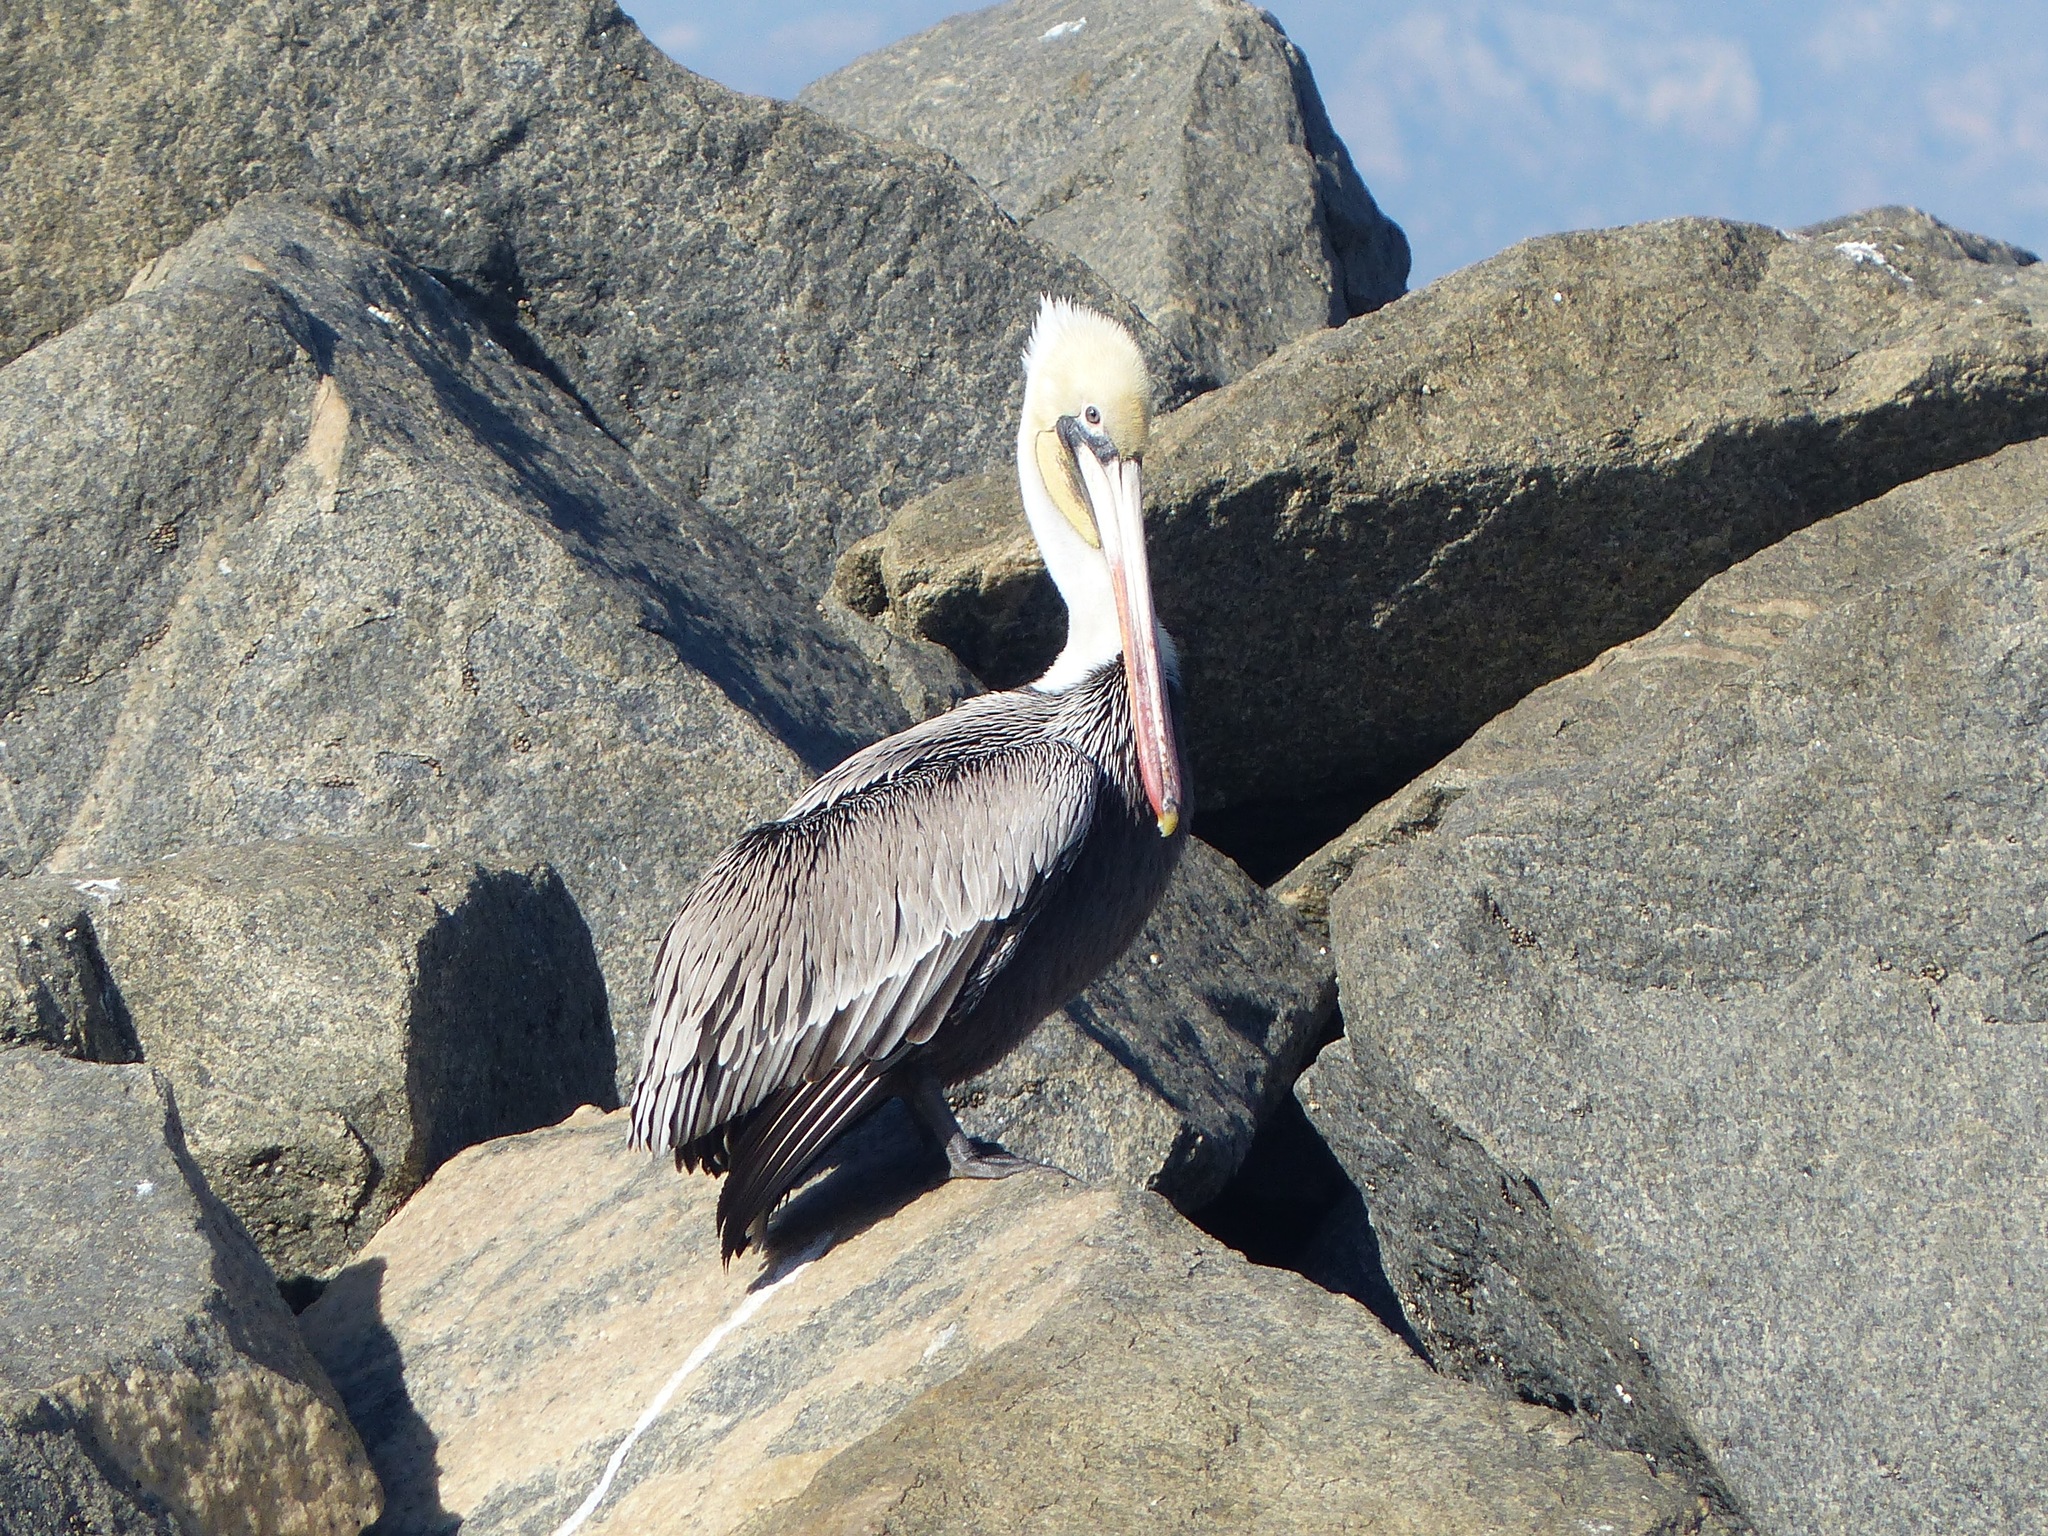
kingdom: Animalia
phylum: Chordata
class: Aves
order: Pelecaniformes
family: Pelecanidae
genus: Pelecanus
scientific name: Pelecanus occidentalis
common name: Brown pelican
